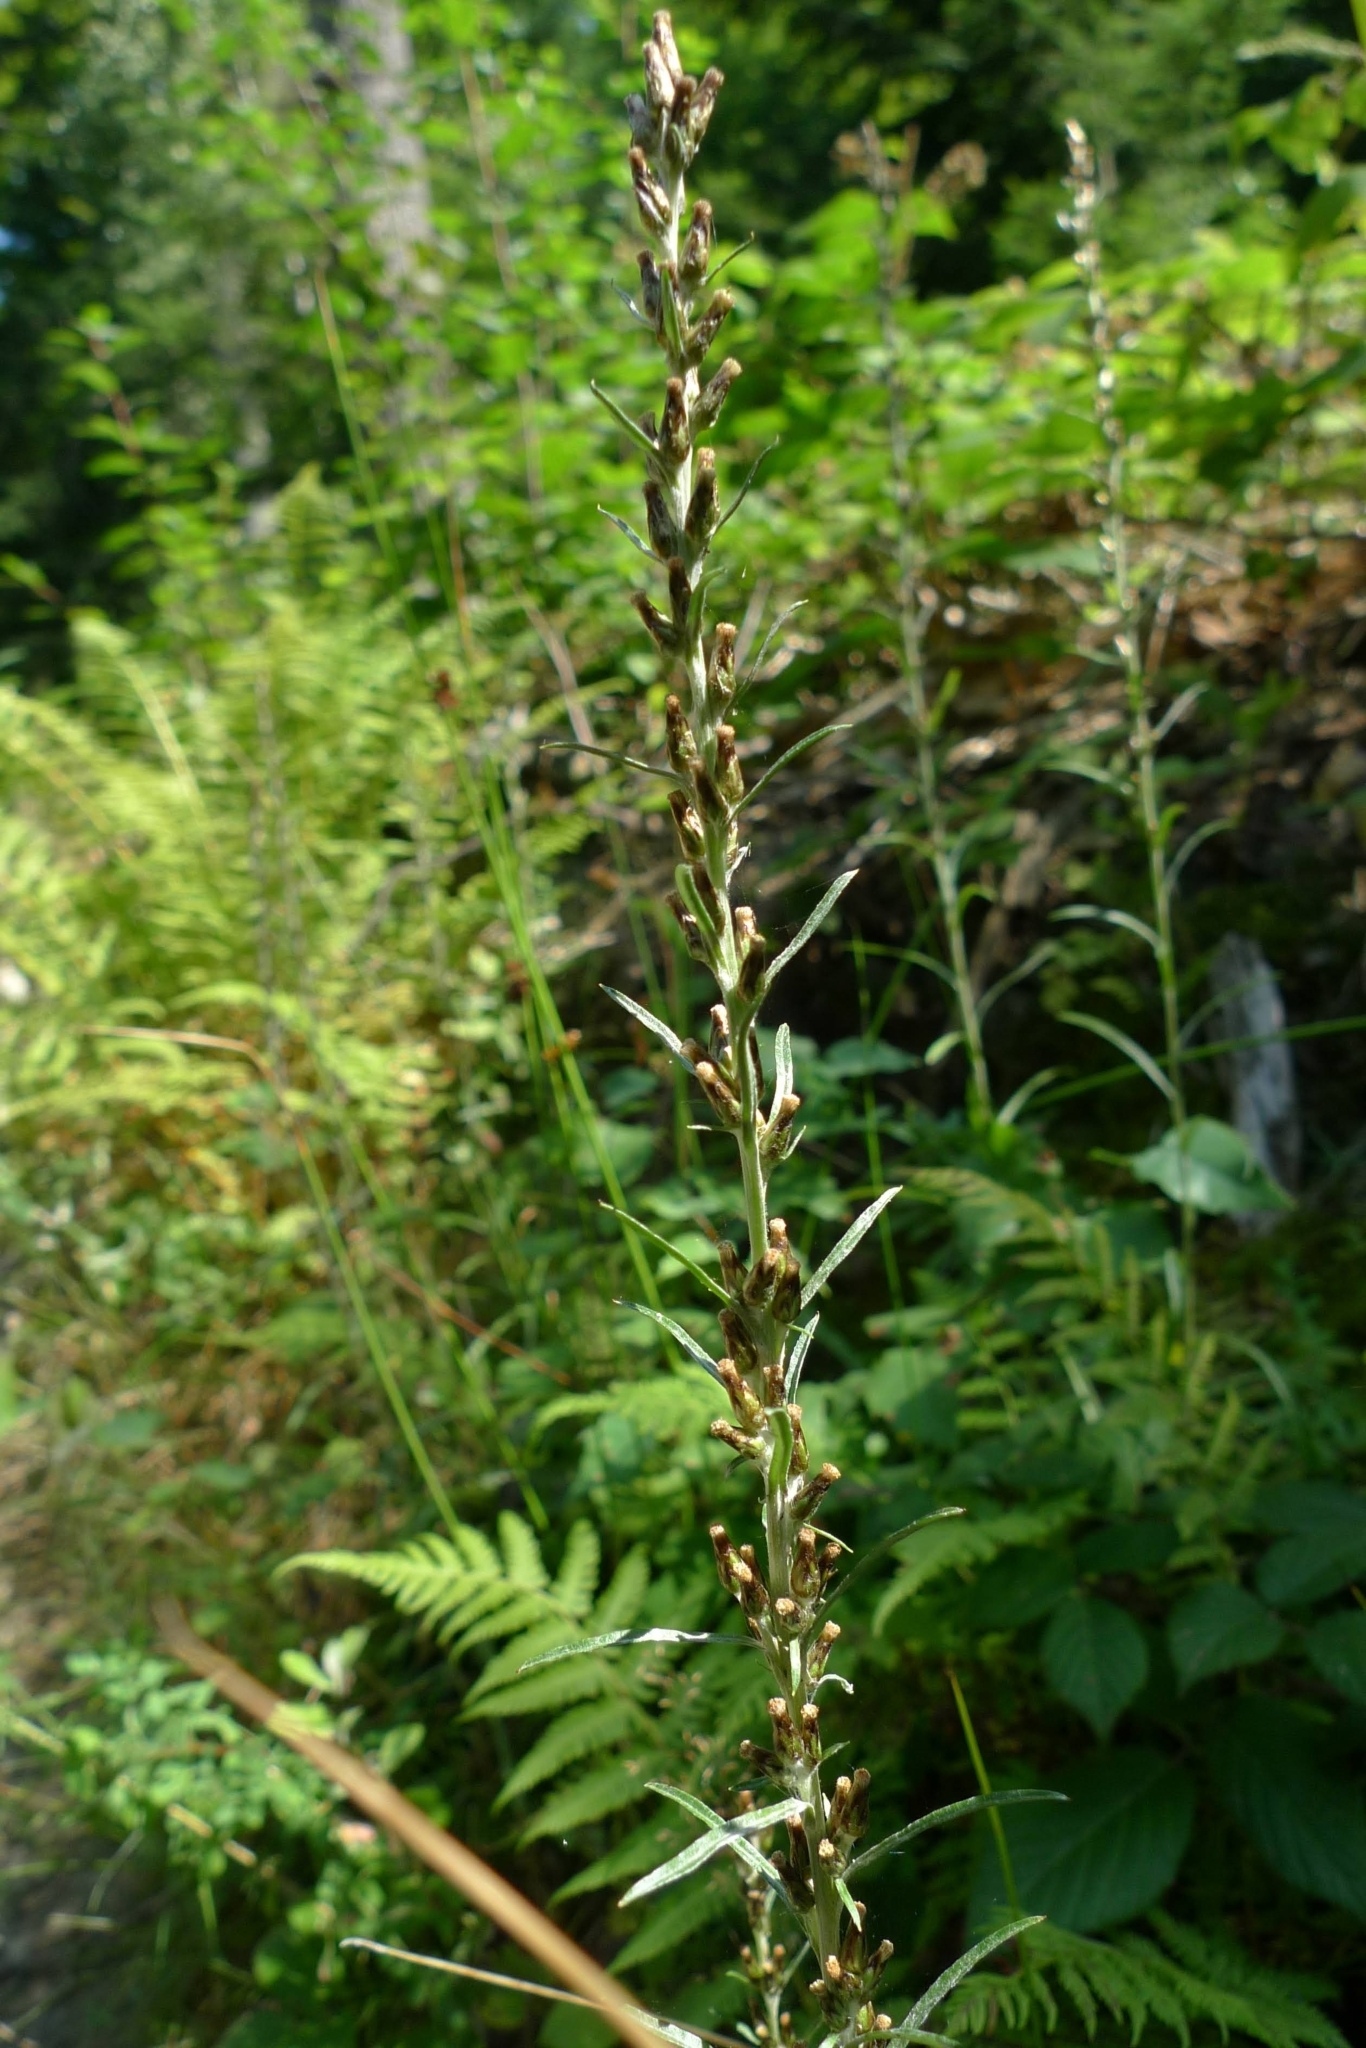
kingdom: Plantae
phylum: Tracheophyta
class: Magnoliopsida
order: Asterales
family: Asteraceae
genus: Omalotheca
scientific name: Omalotheca sylvatica
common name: Heath cudweed
